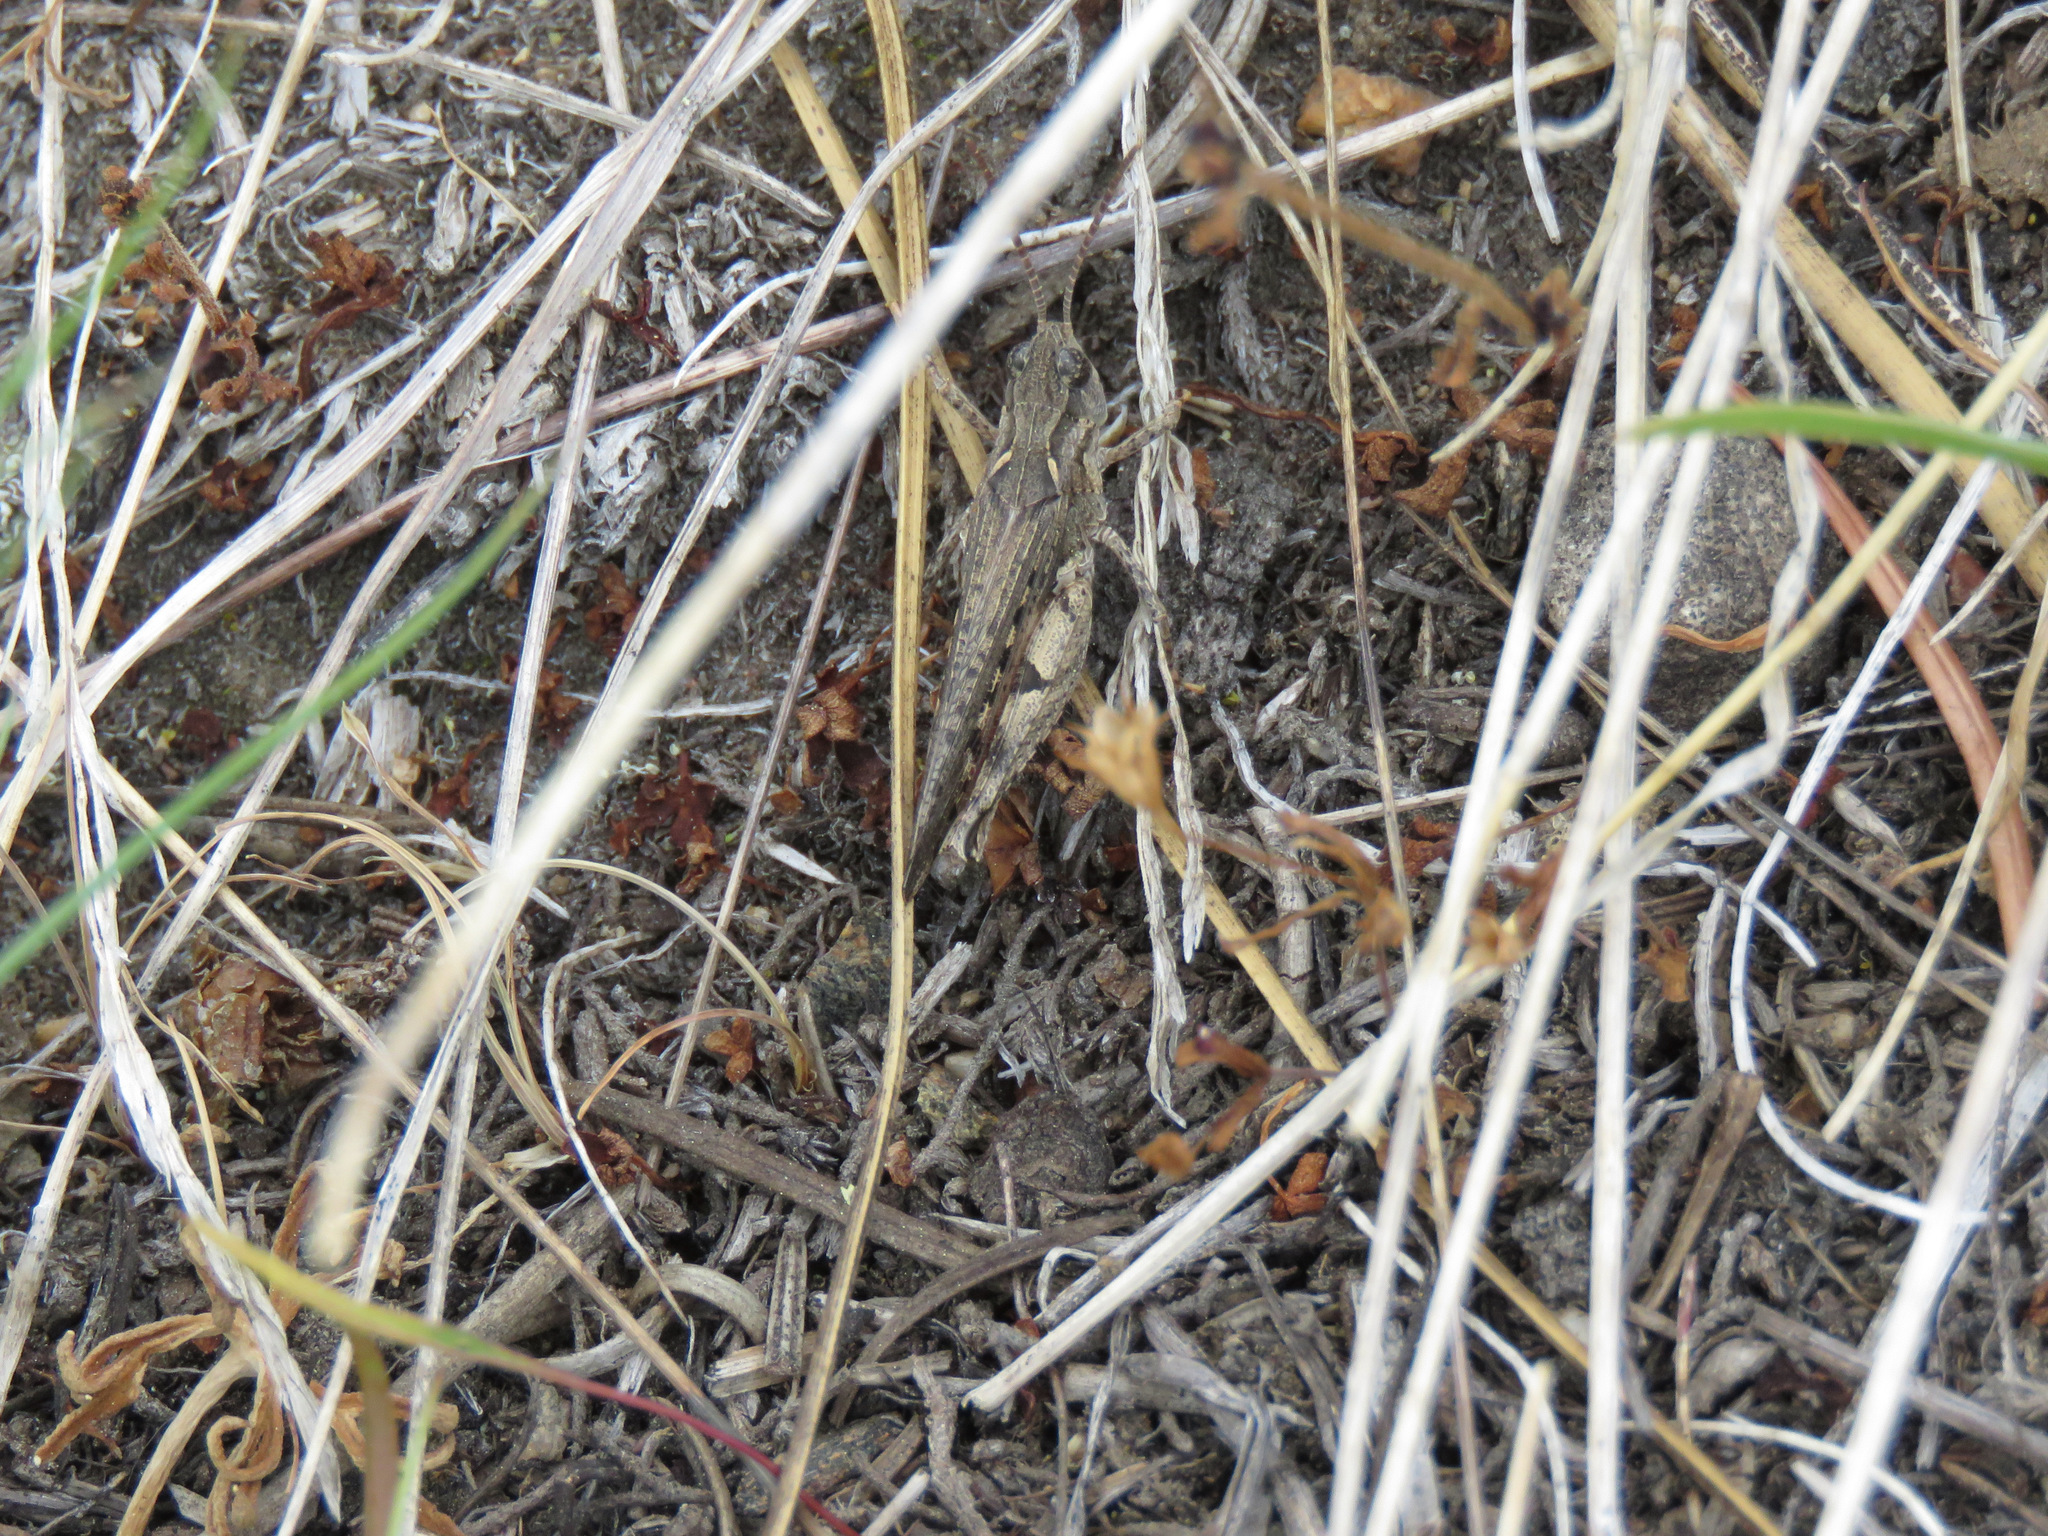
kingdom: Animalia
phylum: Arthropoda
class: Insecta
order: Orthoptera
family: Acrididae
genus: Psoloessa
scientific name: Psoloessa delicatula
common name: Brown-spotted range grasshopper
